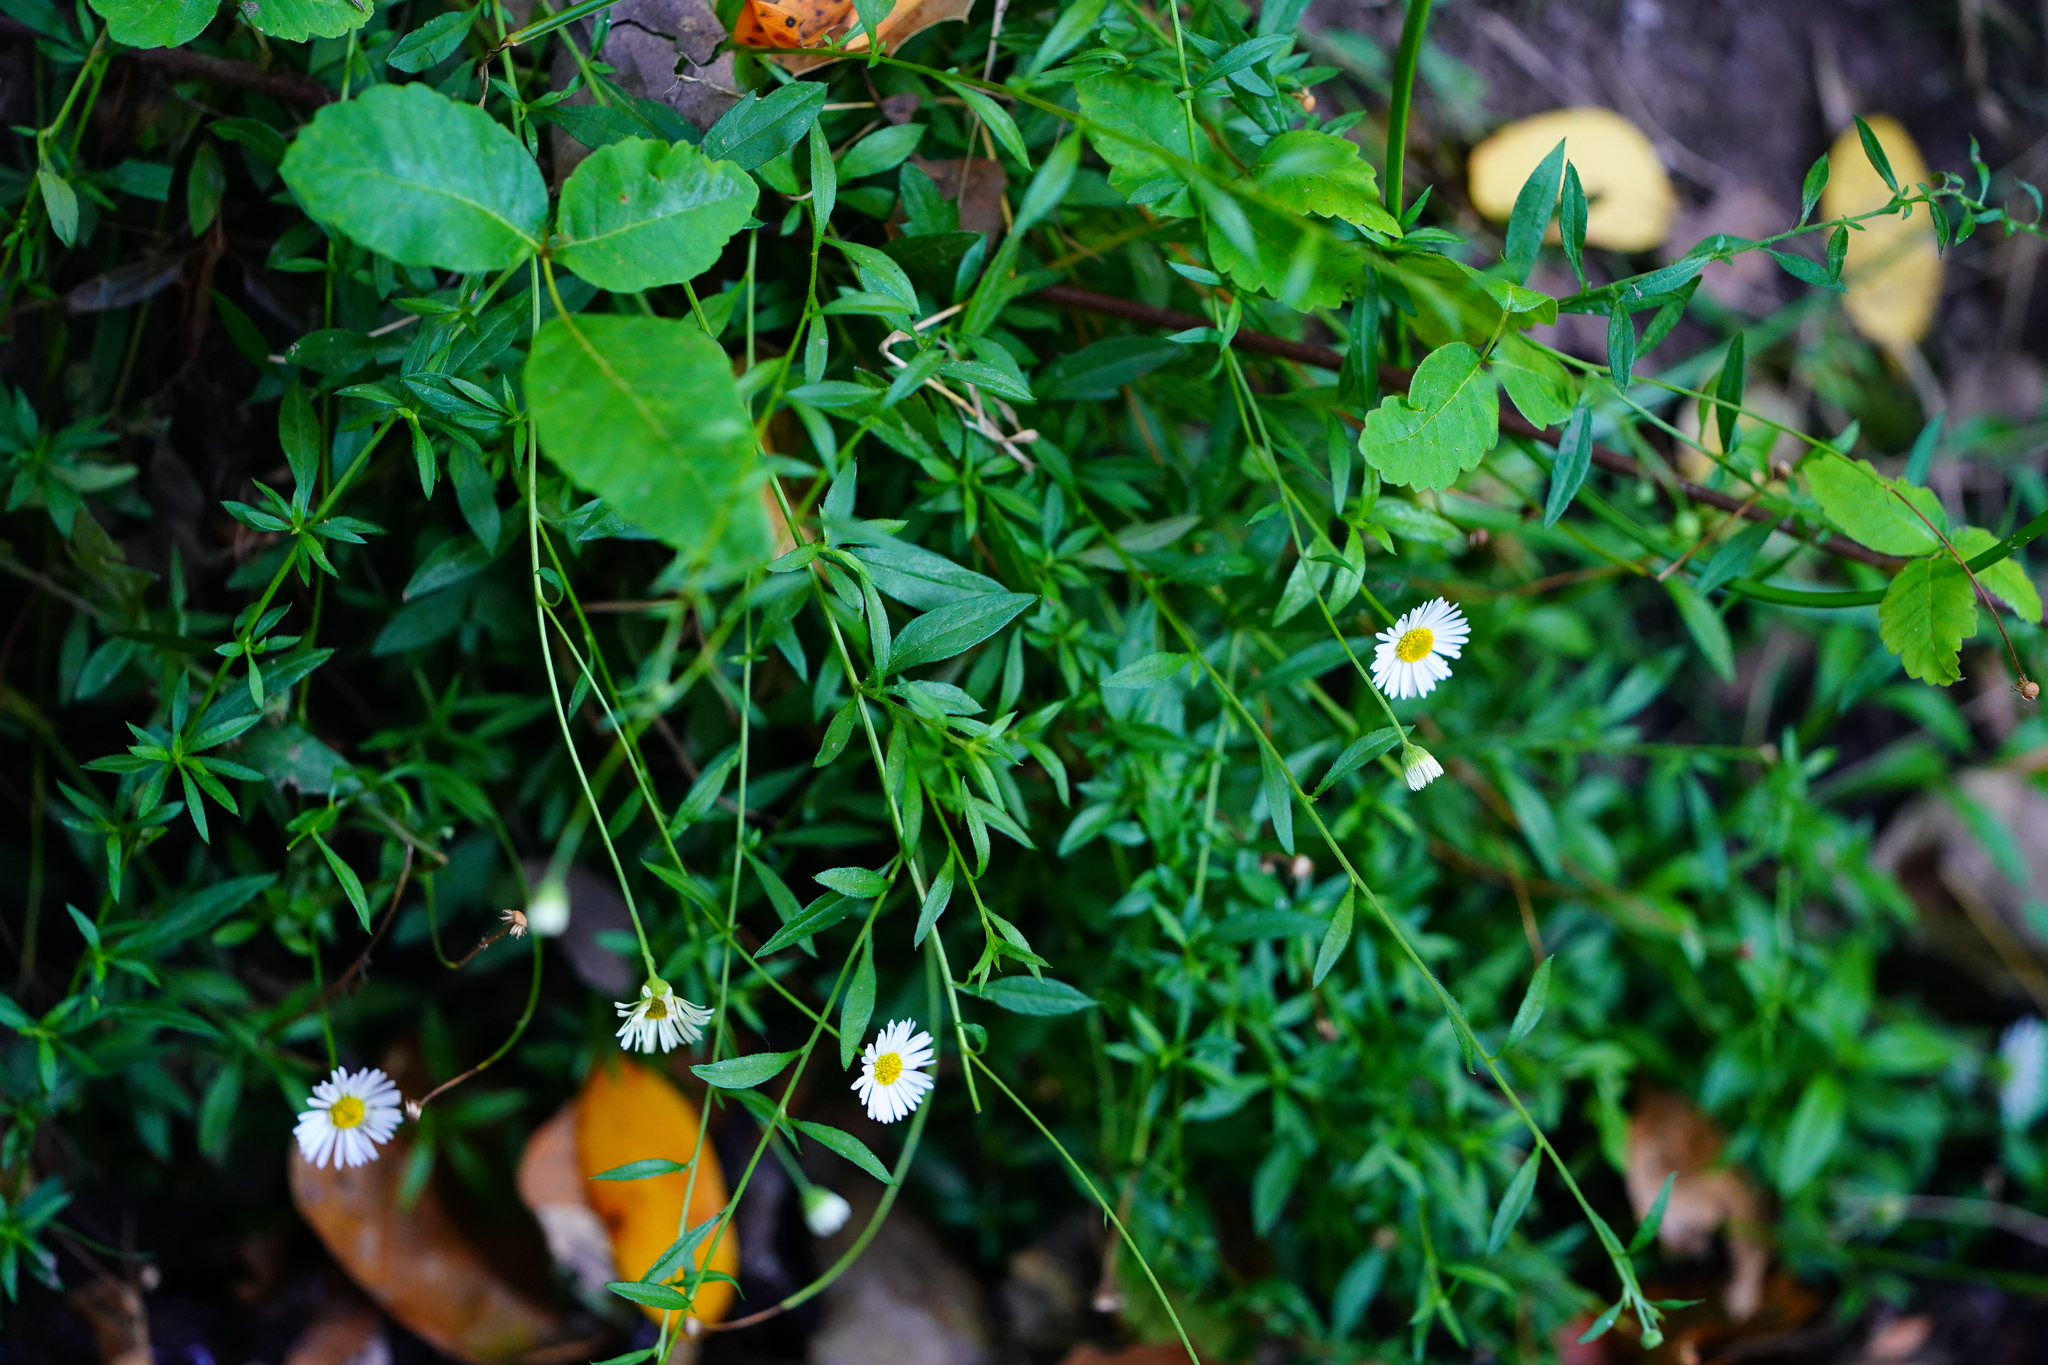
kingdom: Plantae
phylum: Tracheophyta
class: Magnoliopsida
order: Asterales
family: Asteraceae
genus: Erigeron
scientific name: Erigeron karvinskianus
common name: Mexican fleabane
